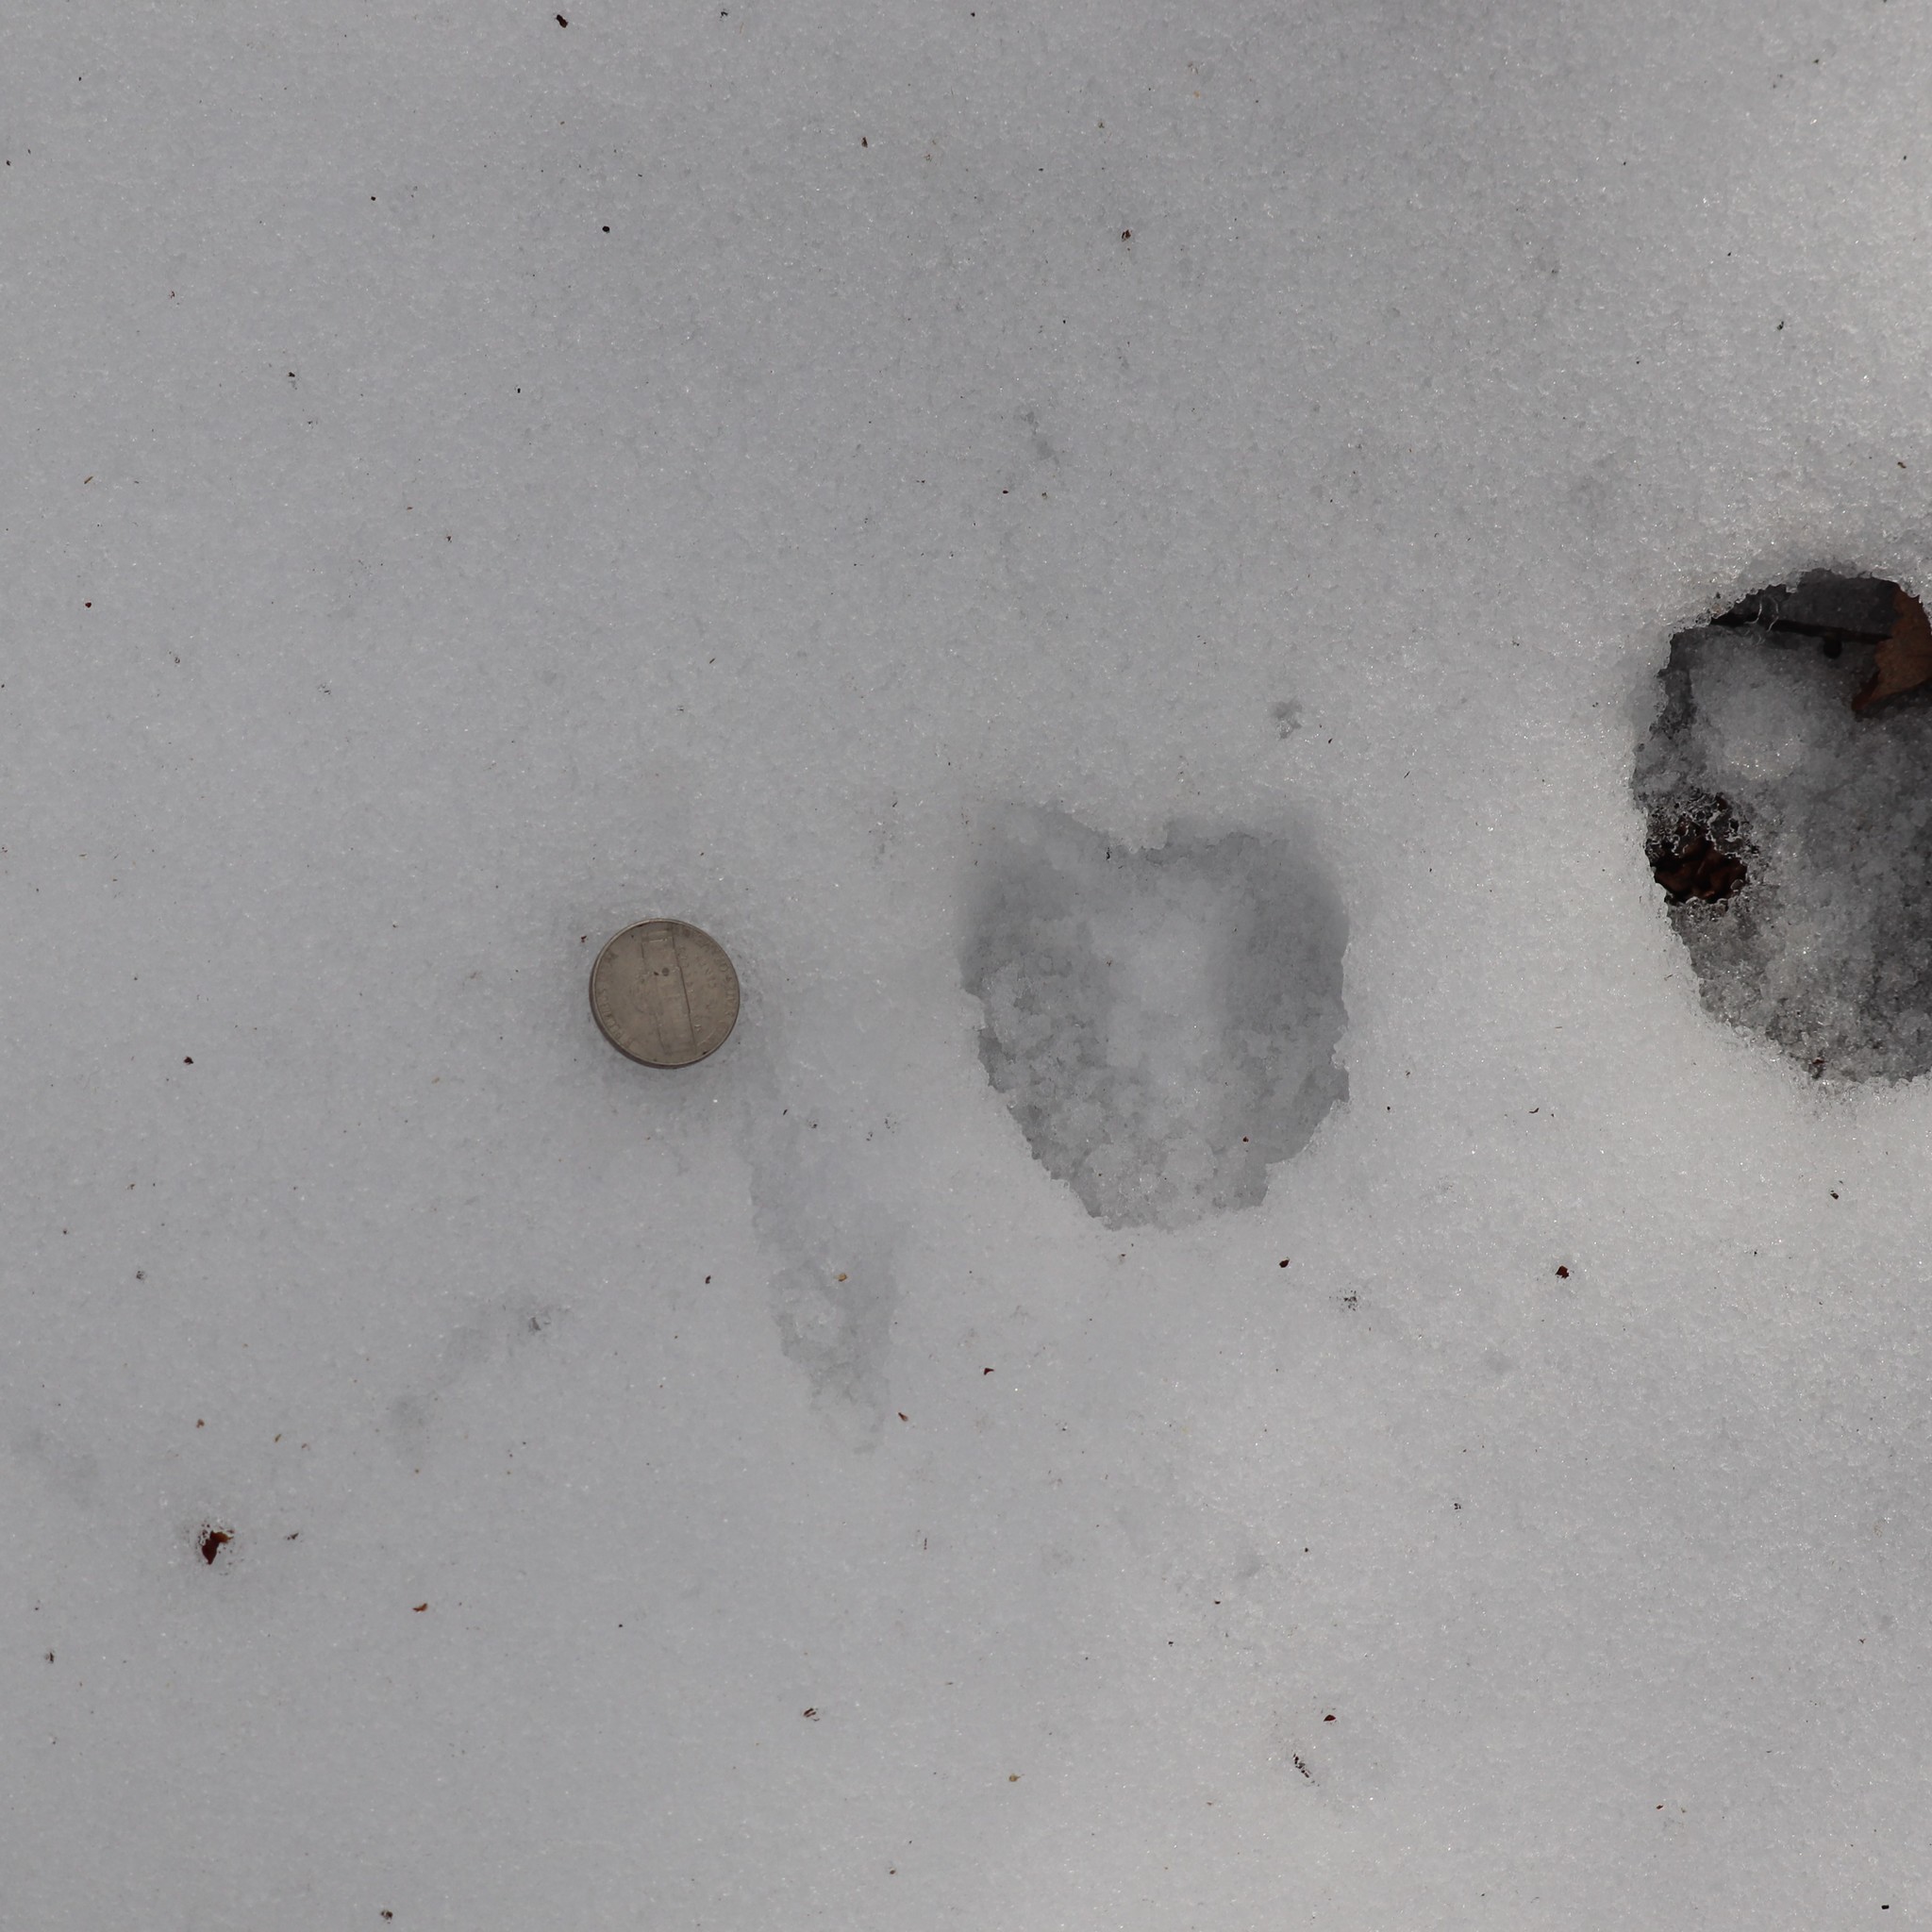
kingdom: Animalia
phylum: Chordata
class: Mammalia
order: Artiodactyla
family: Cervidae
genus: Odocoileus
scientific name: Odocoileus virginianus
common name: White-tailed deer
